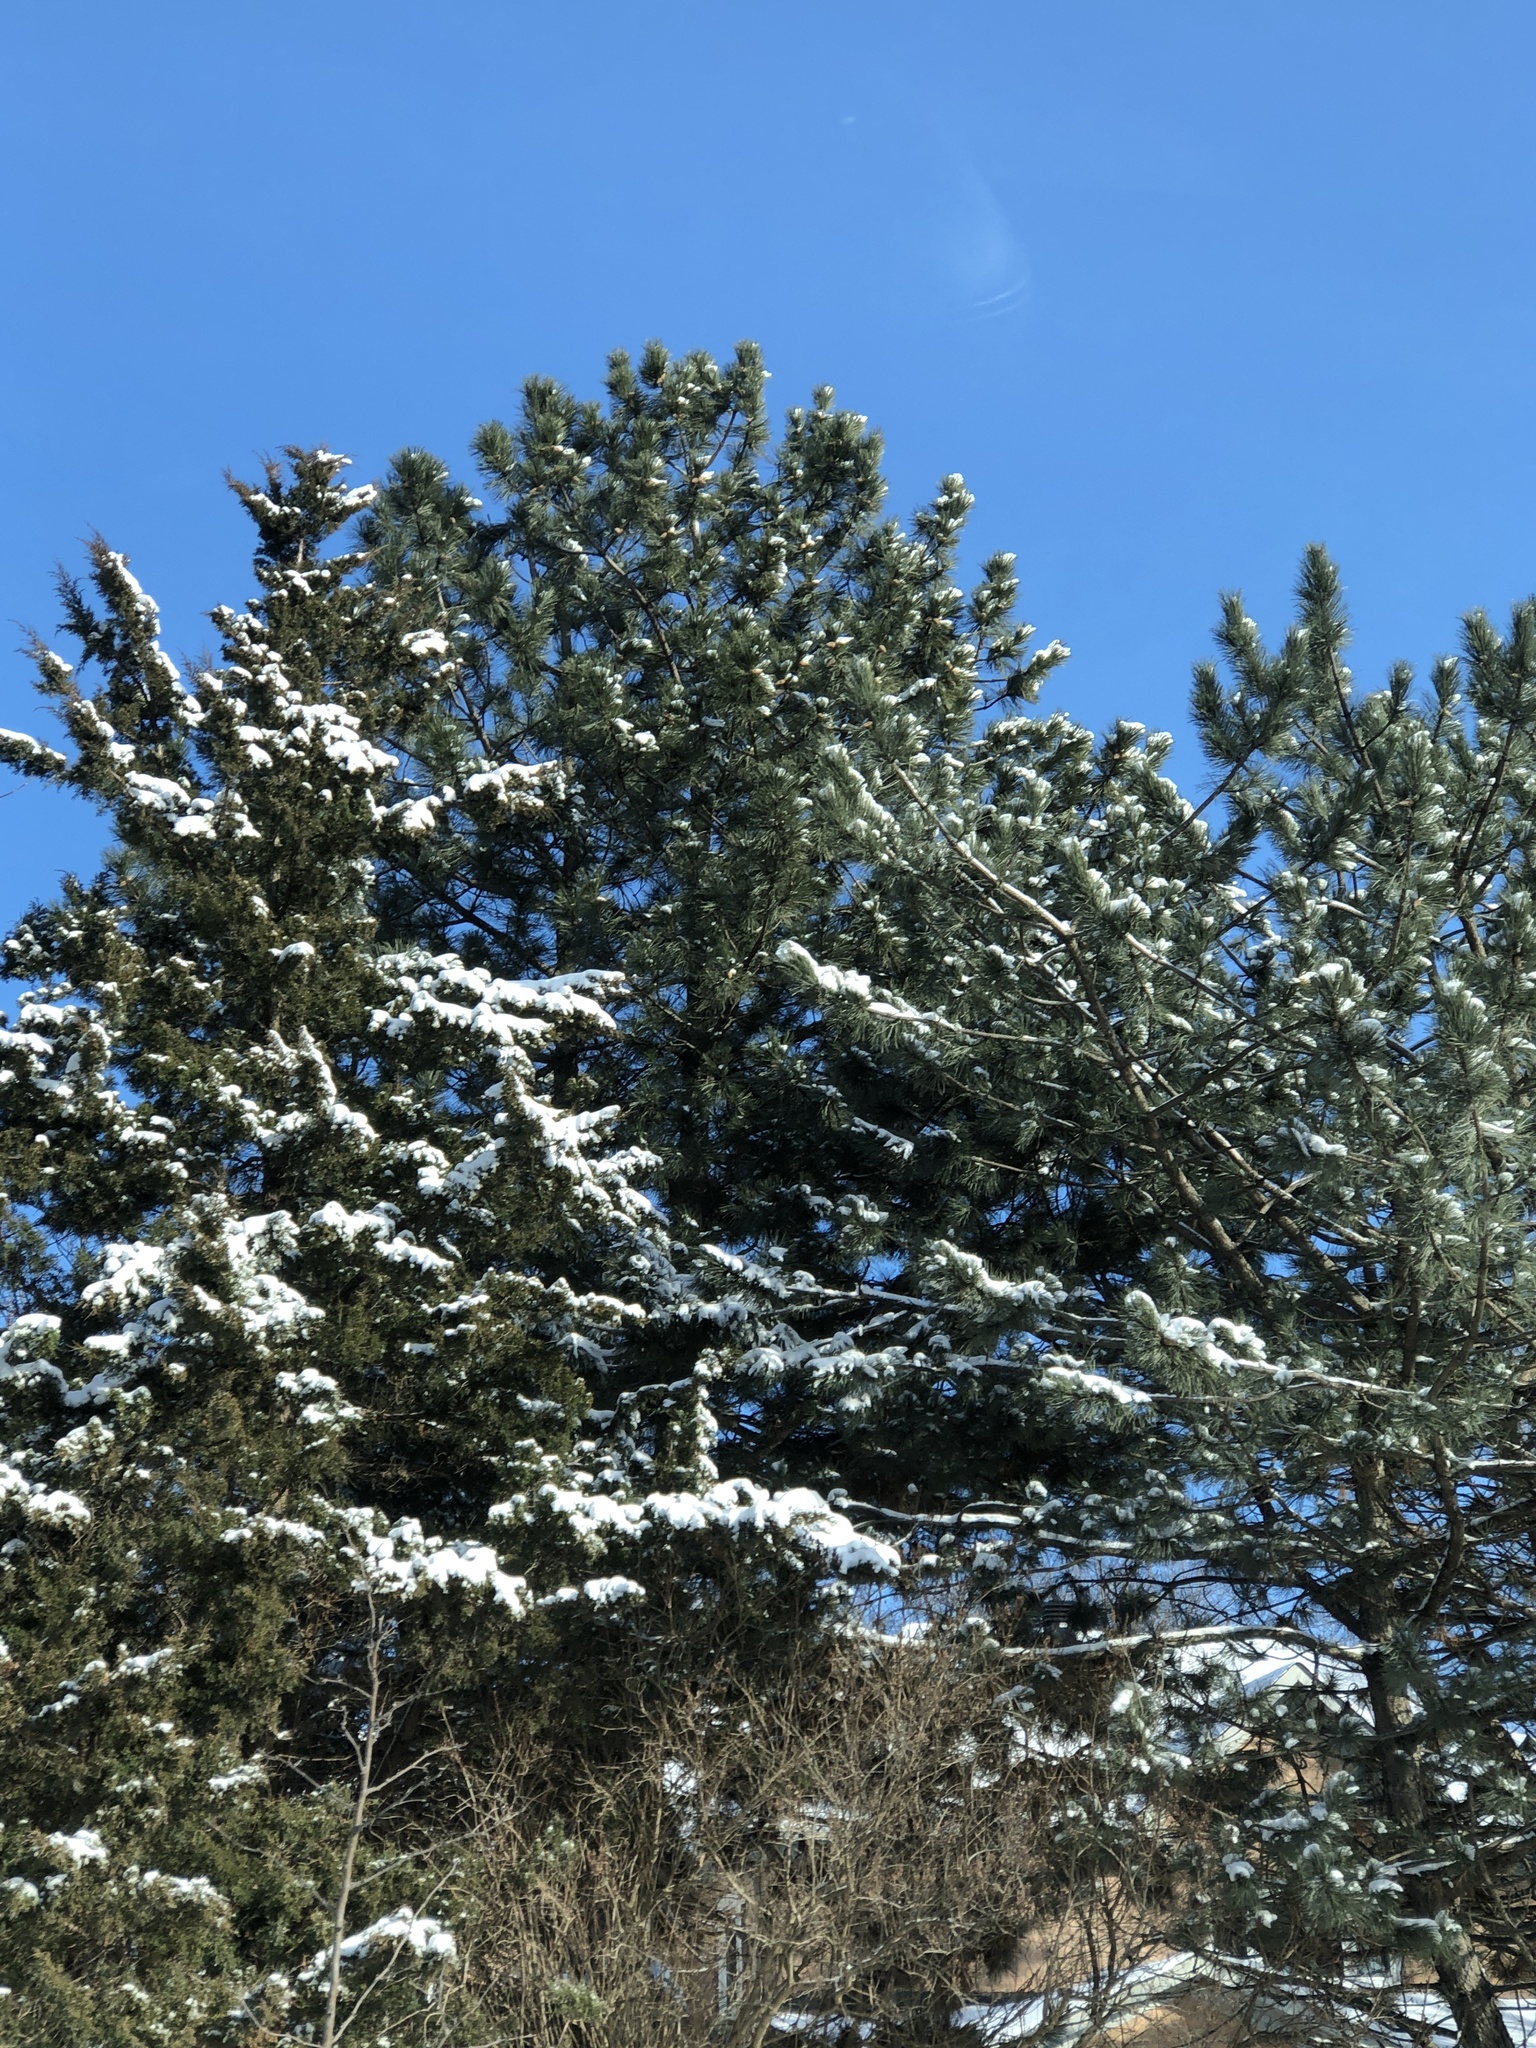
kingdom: Plantae
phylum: Tracheophyta
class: Pinopsida
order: Pinales
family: Pinaceae
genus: Pinus
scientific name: Pinus nigra
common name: Austrian pine
